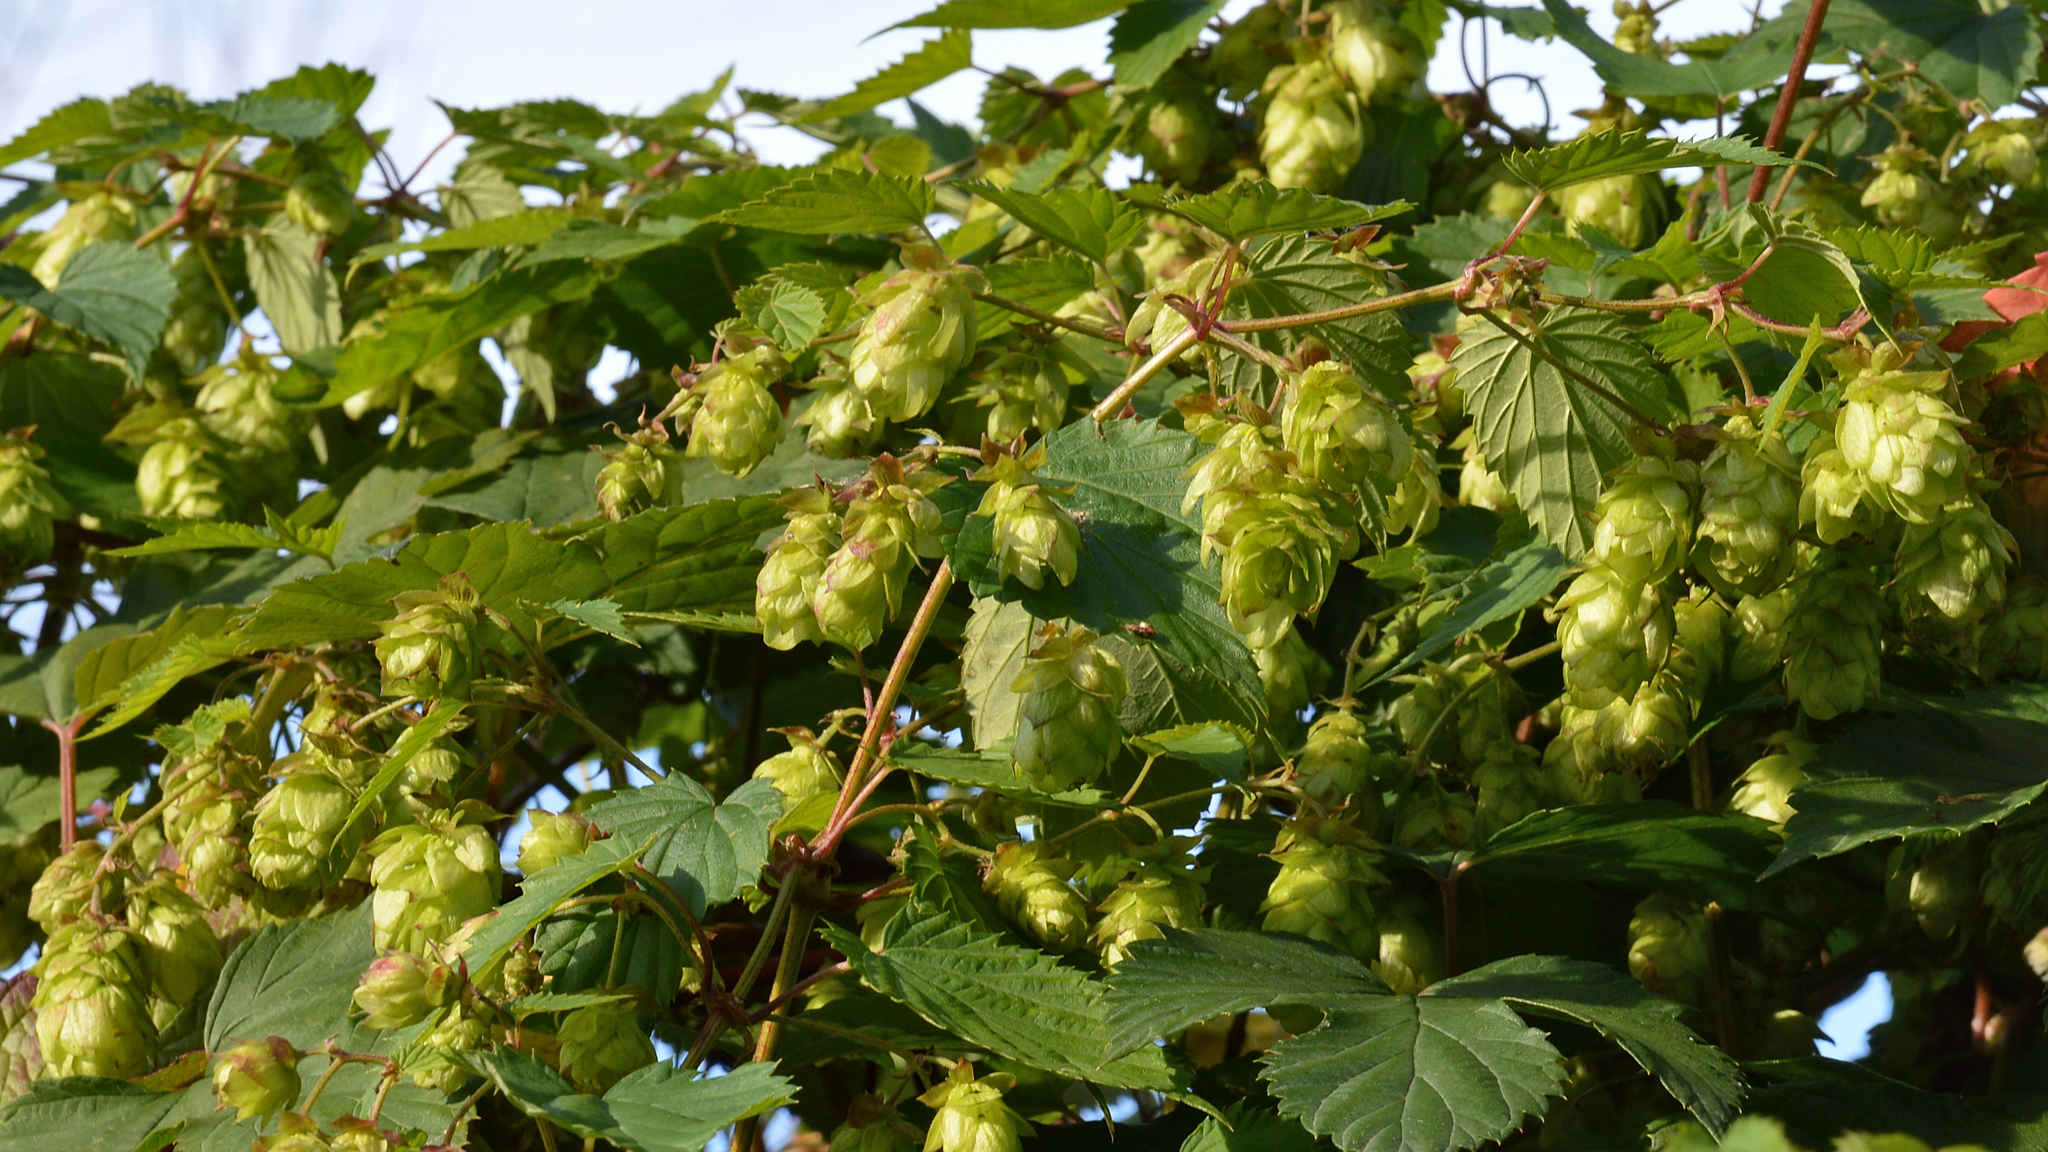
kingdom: Plantae
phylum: Tracheophyta
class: Magnoliopsida
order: Rosales
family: Cannabaceae
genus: Humulus
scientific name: Humulus lupulus
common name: Hop
